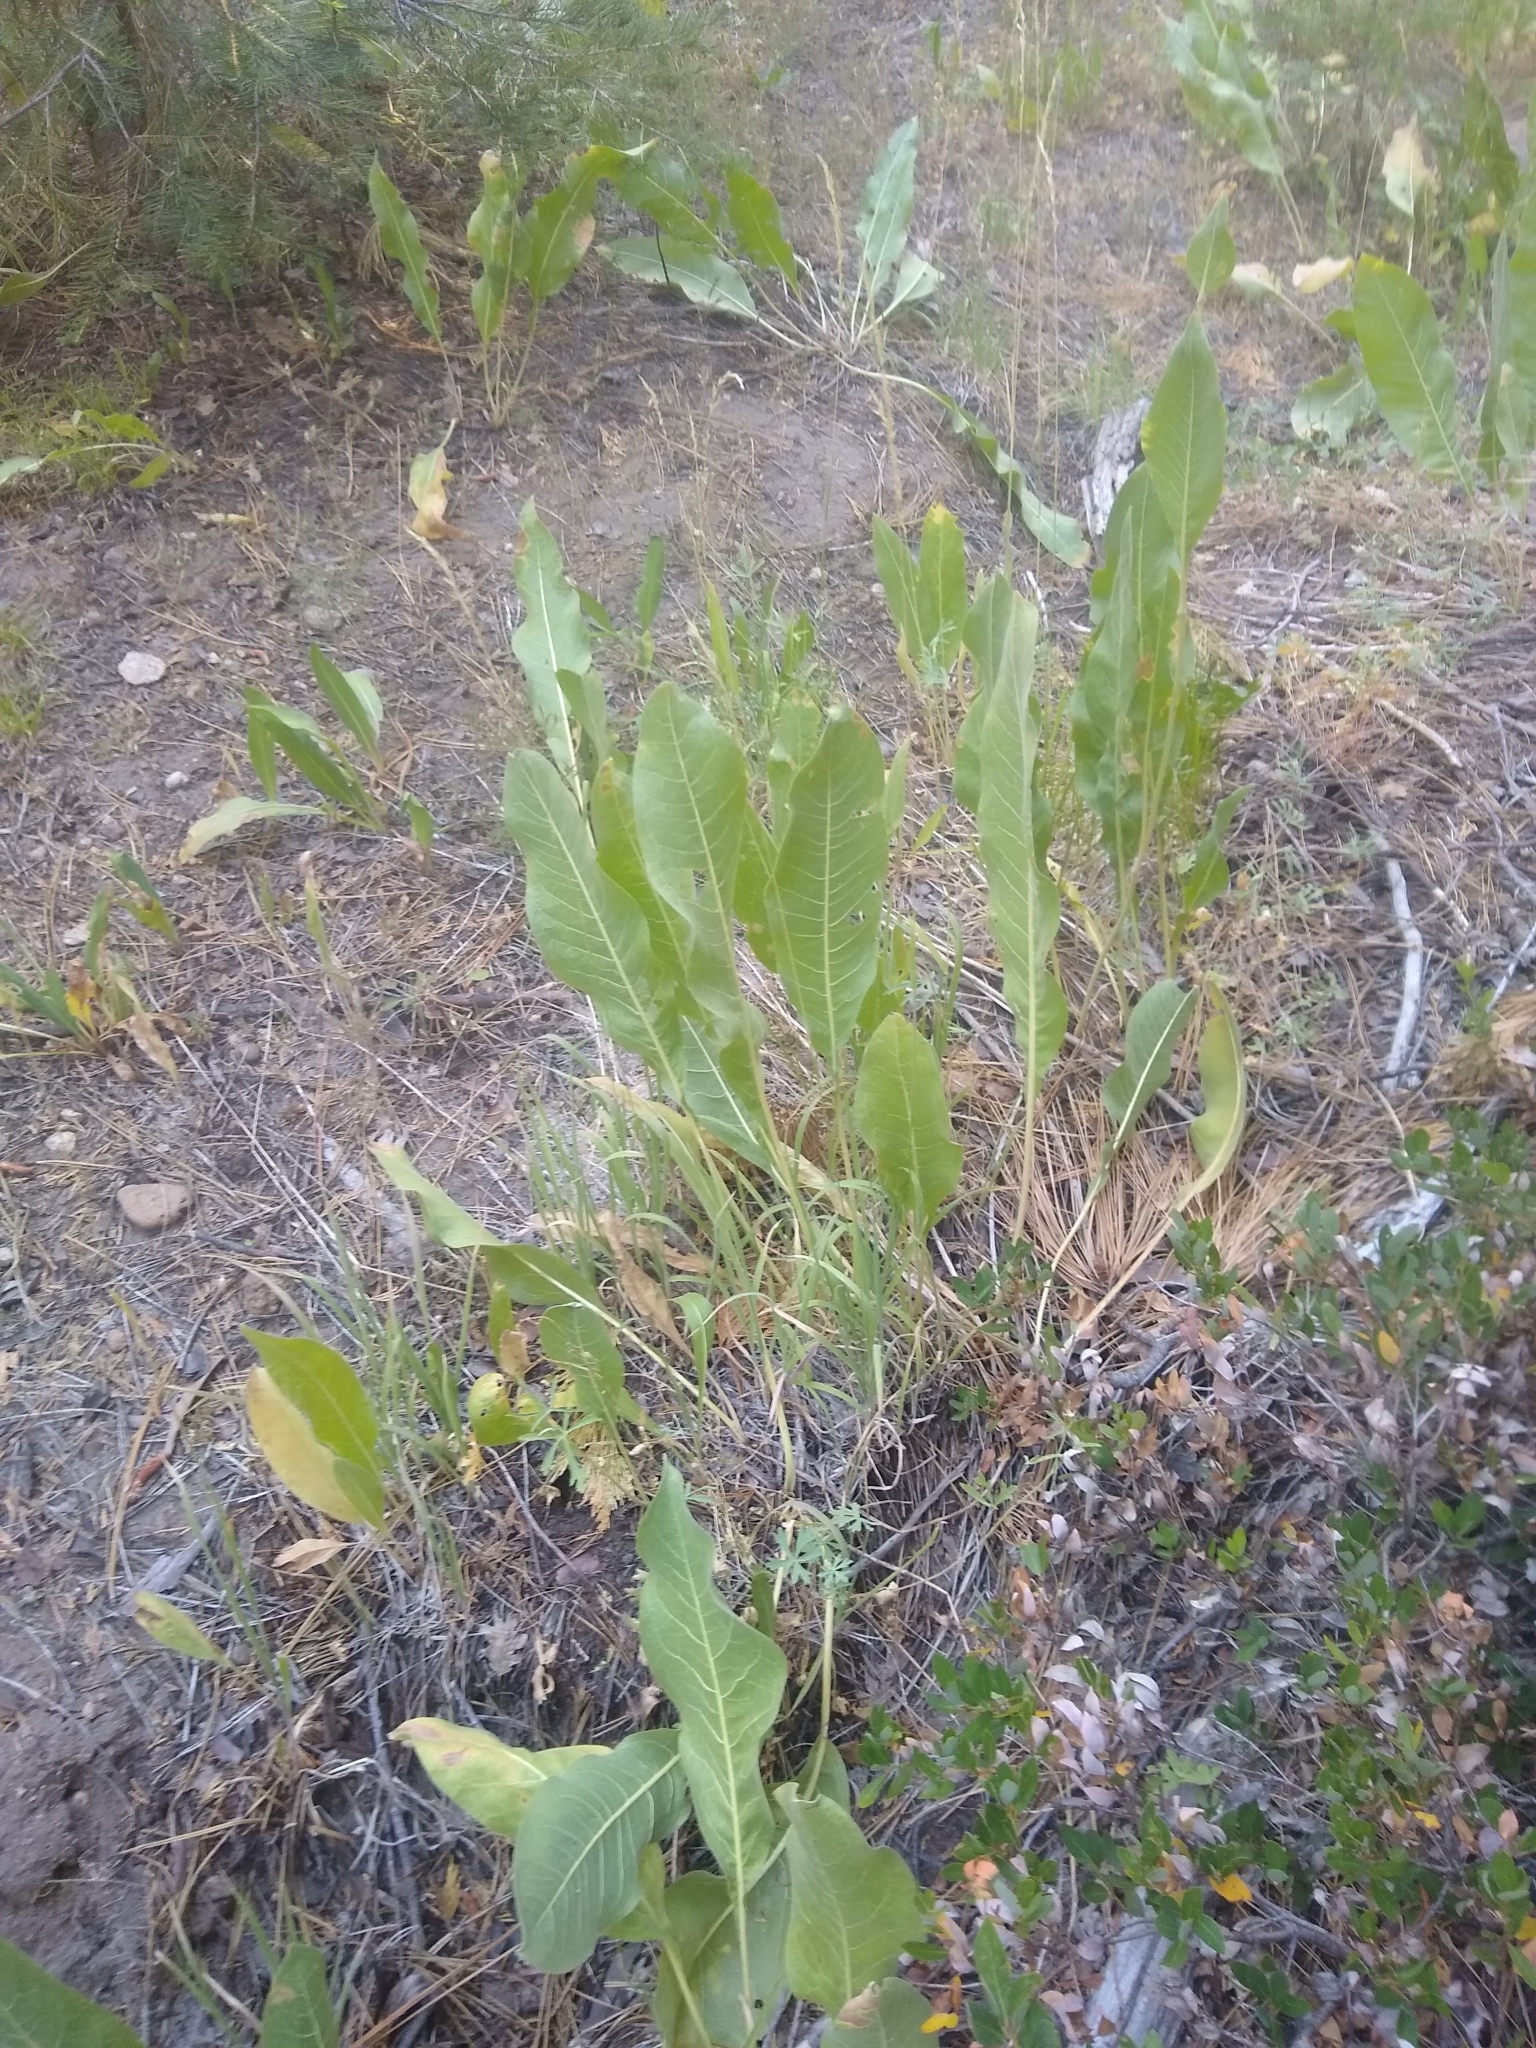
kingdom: Plantae
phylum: Tracheophyta
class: Magnoliopsida
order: Asterales
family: Asteraceae
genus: Wyethia
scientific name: Wyethia mollis
